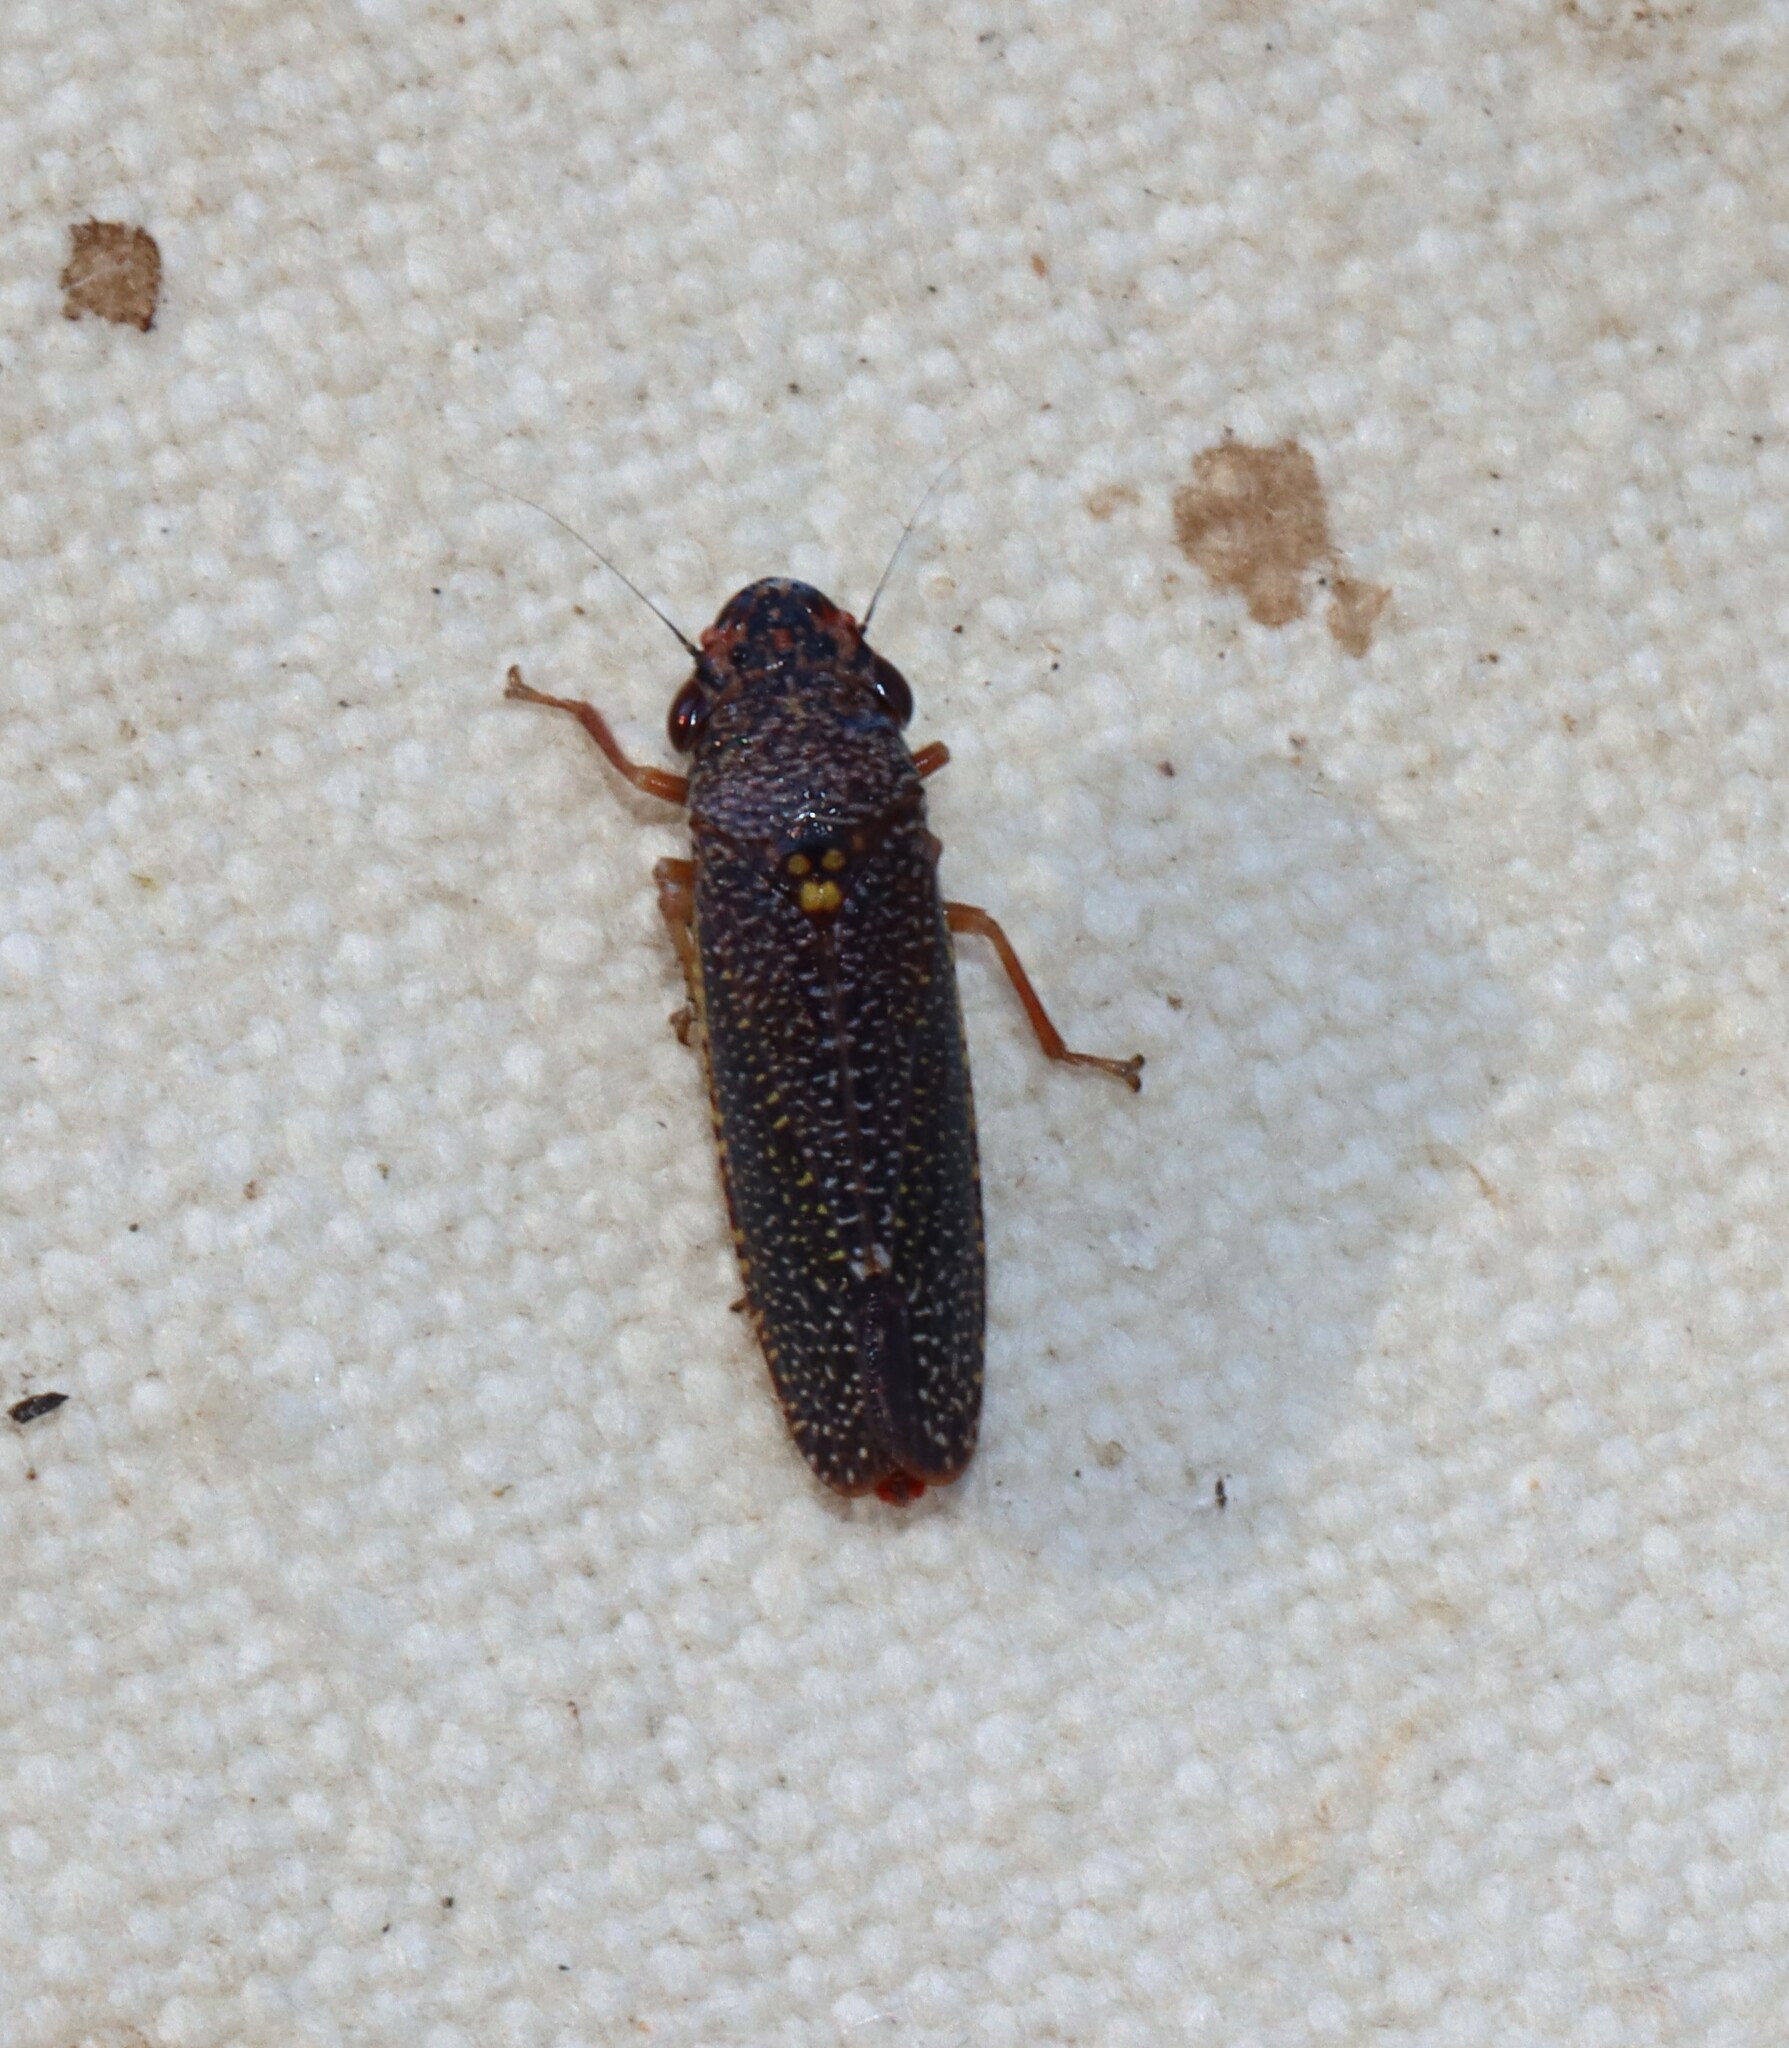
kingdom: Animalia
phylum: Arthropoda
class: Insecta
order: Hemiptera
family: Cicadellidae
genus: Paraulacizes
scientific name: Paraulacizes irrorata
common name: Speckled sharpshooter
